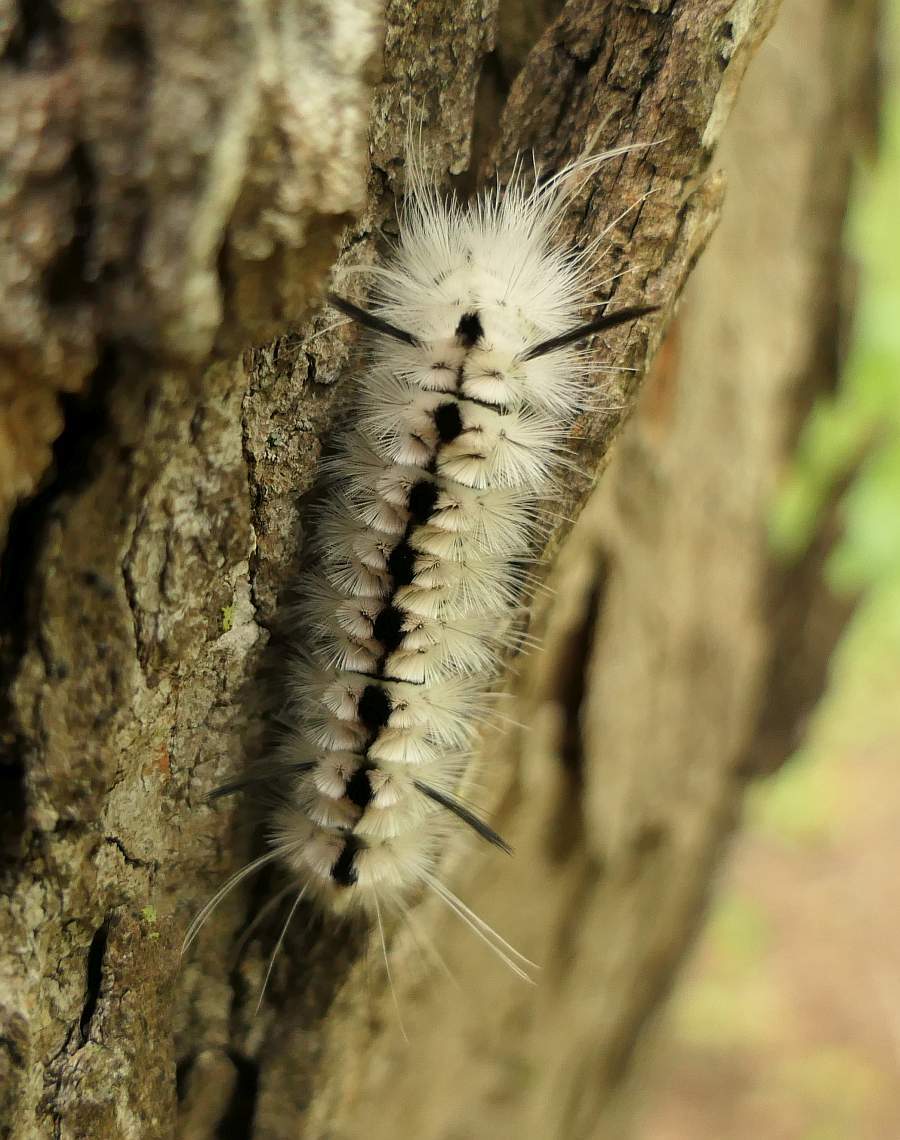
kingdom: Animalia
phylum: Arthropoda
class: Insecta
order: Lepidoptera
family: Erebidae
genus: Lophocampa
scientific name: Lophocampa caryae
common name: Hickory tussock moth
